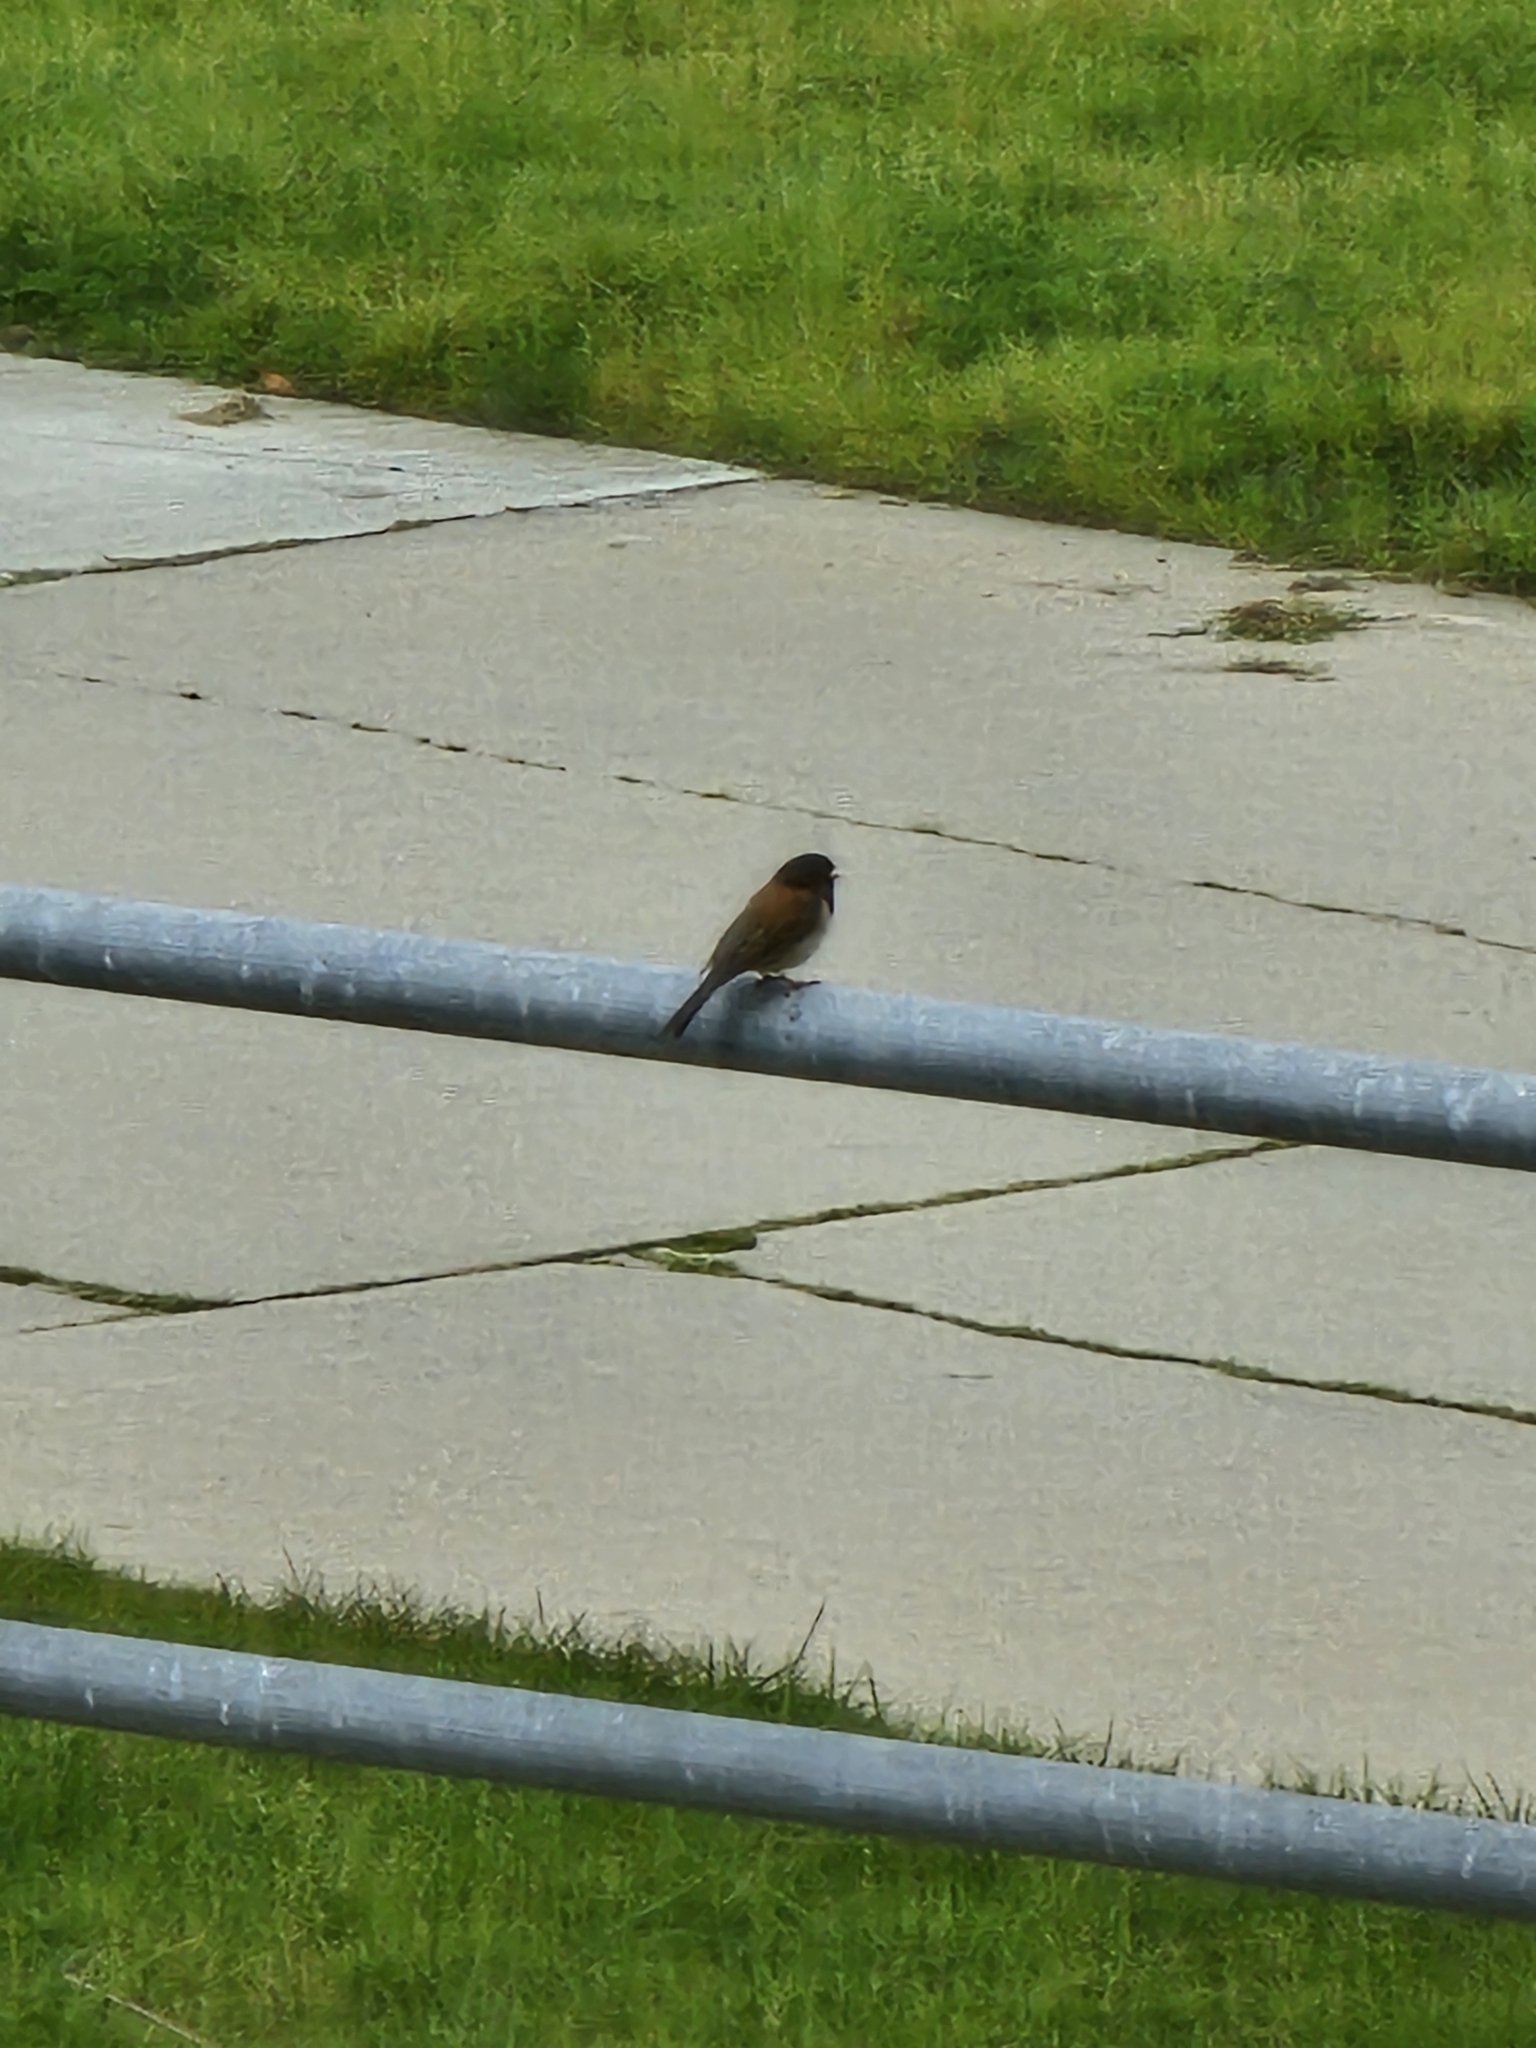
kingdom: Animalia
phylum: Chordata
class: Aves
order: Passeriformes
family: Passerellidae
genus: Junco
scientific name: Junco hyemalis
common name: Dark-eyed junco
